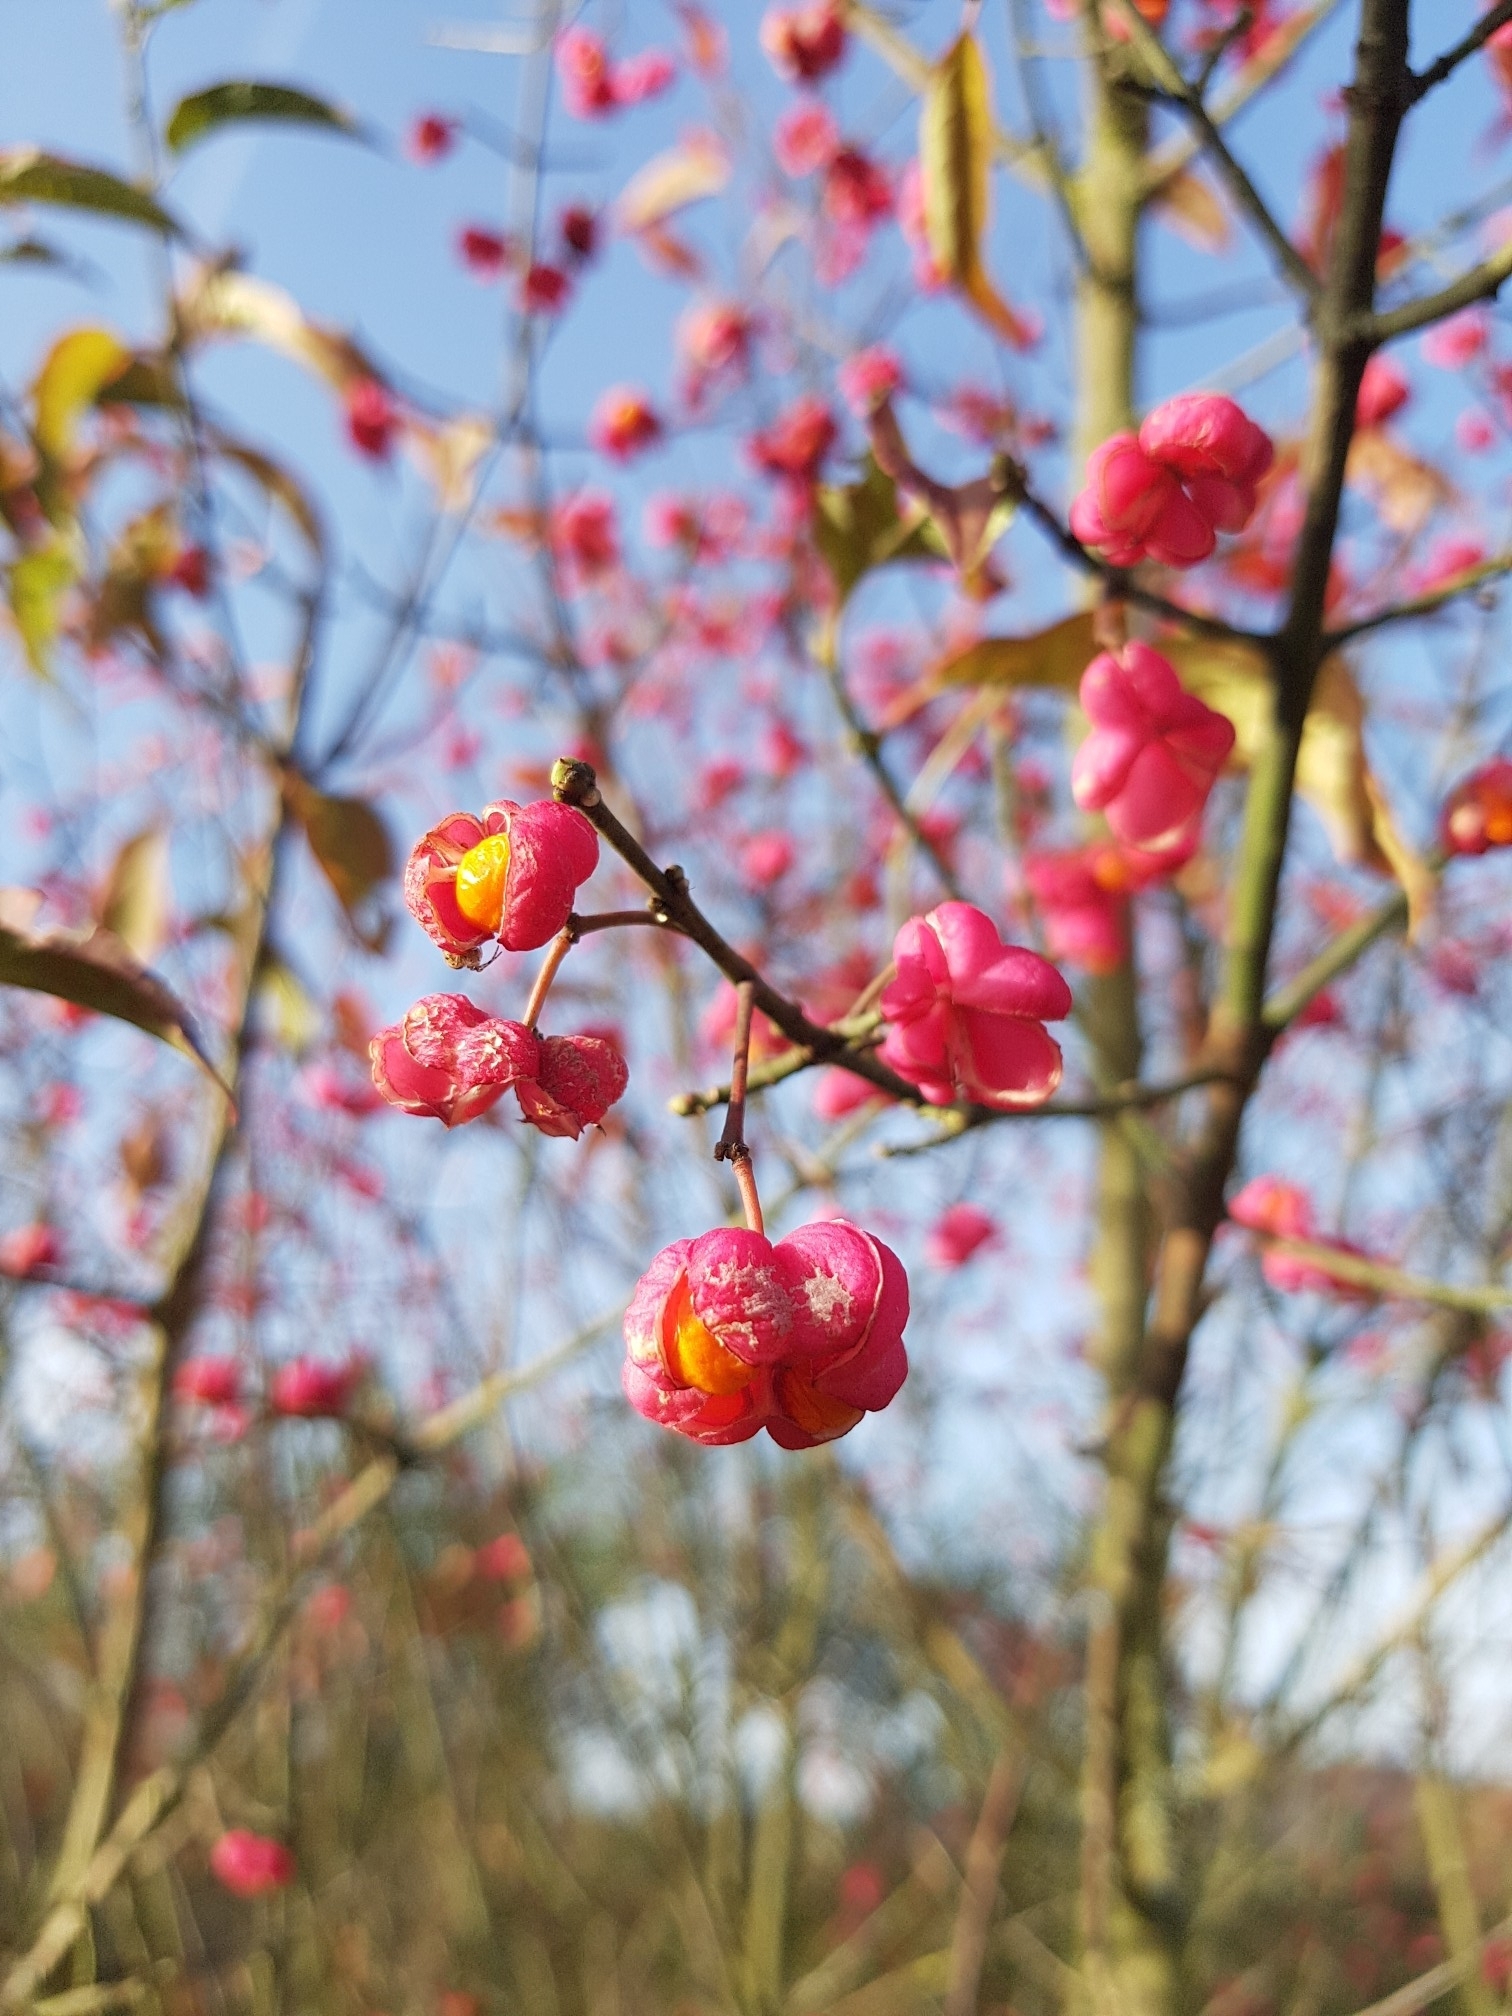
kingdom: Plantae
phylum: Tracheophyta
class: Magnoliopsida
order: Celastrales
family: Celastraceae
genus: Euonymus
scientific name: Euonymus europaeus
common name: Spindle
